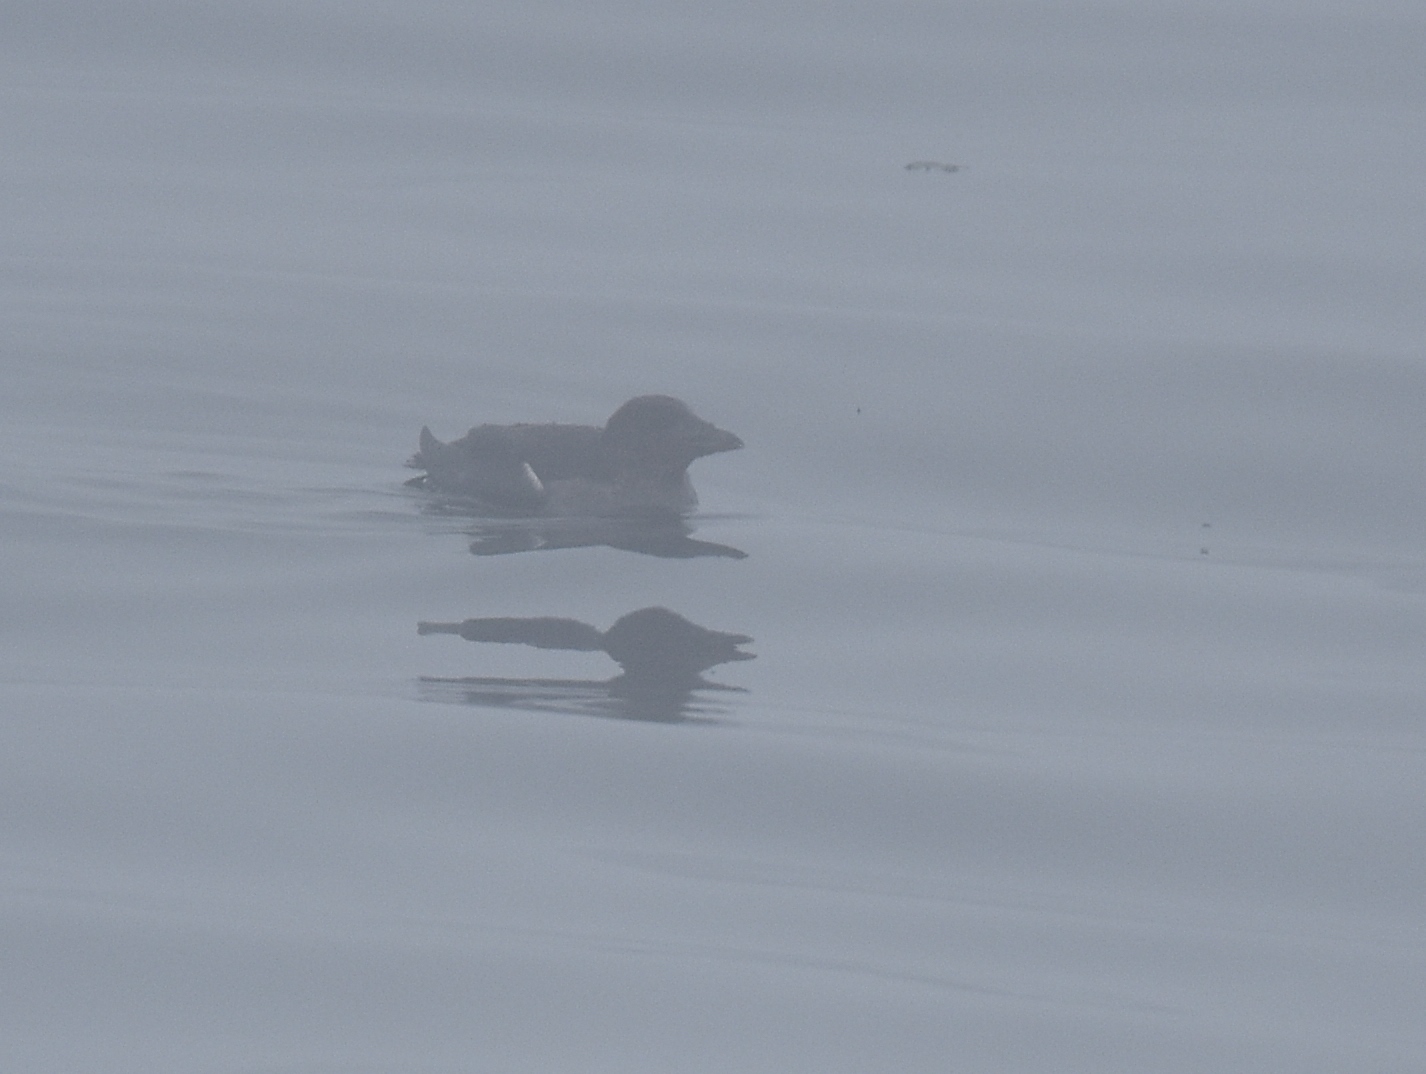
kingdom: Animalia
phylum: Chordata
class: Aves
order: Charadriiformes
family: Alcidae
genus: Cerorhinca
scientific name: Cerorhinca monocerata
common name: Rhinoceros auklet
